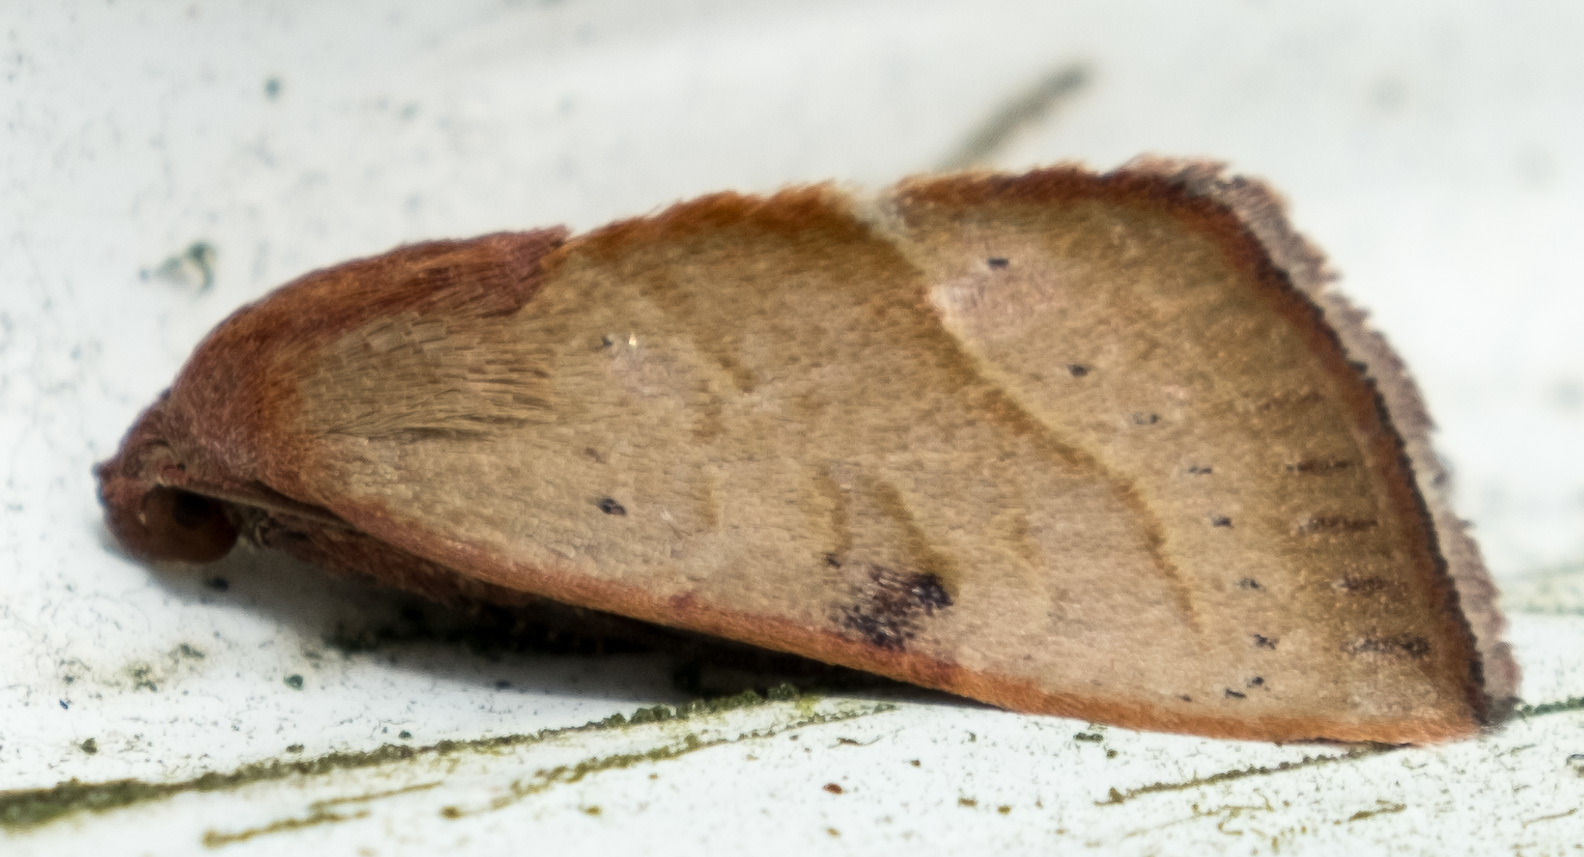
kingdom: Animalia
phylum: Arthropoda
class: Insecta
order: Lepidoptera
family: Noctuidae
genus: Galgula
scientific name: Galgula partita
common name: Wedgeling
